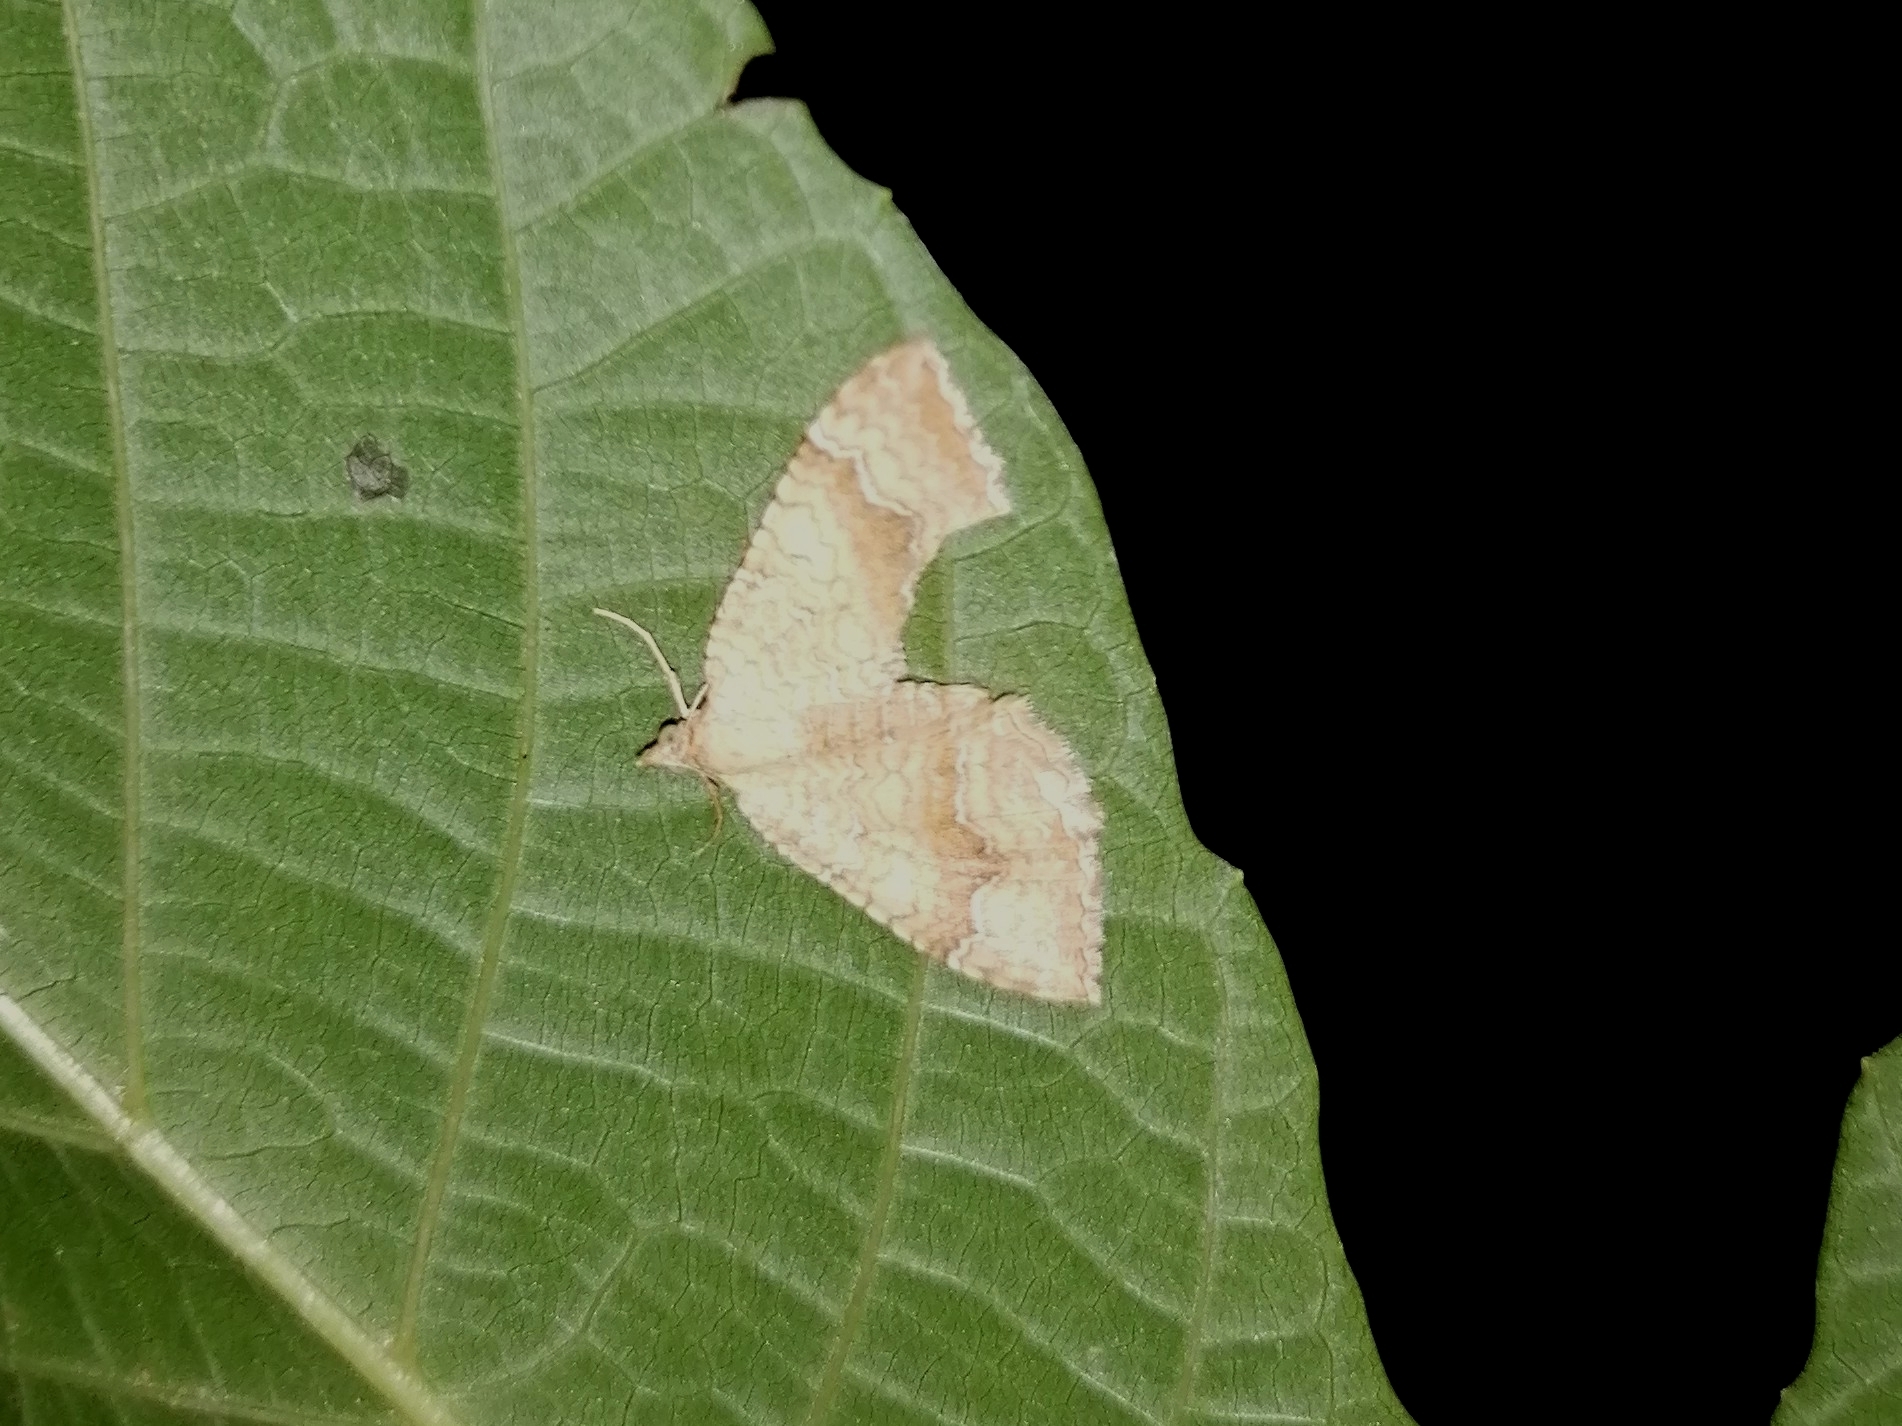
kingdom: Animalia
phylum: Arthropoda
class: Insecta
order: Lepidoptera
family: Geometridae
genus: Camptogramma
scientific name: Camptogramma bilineata
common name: Yellow shell
